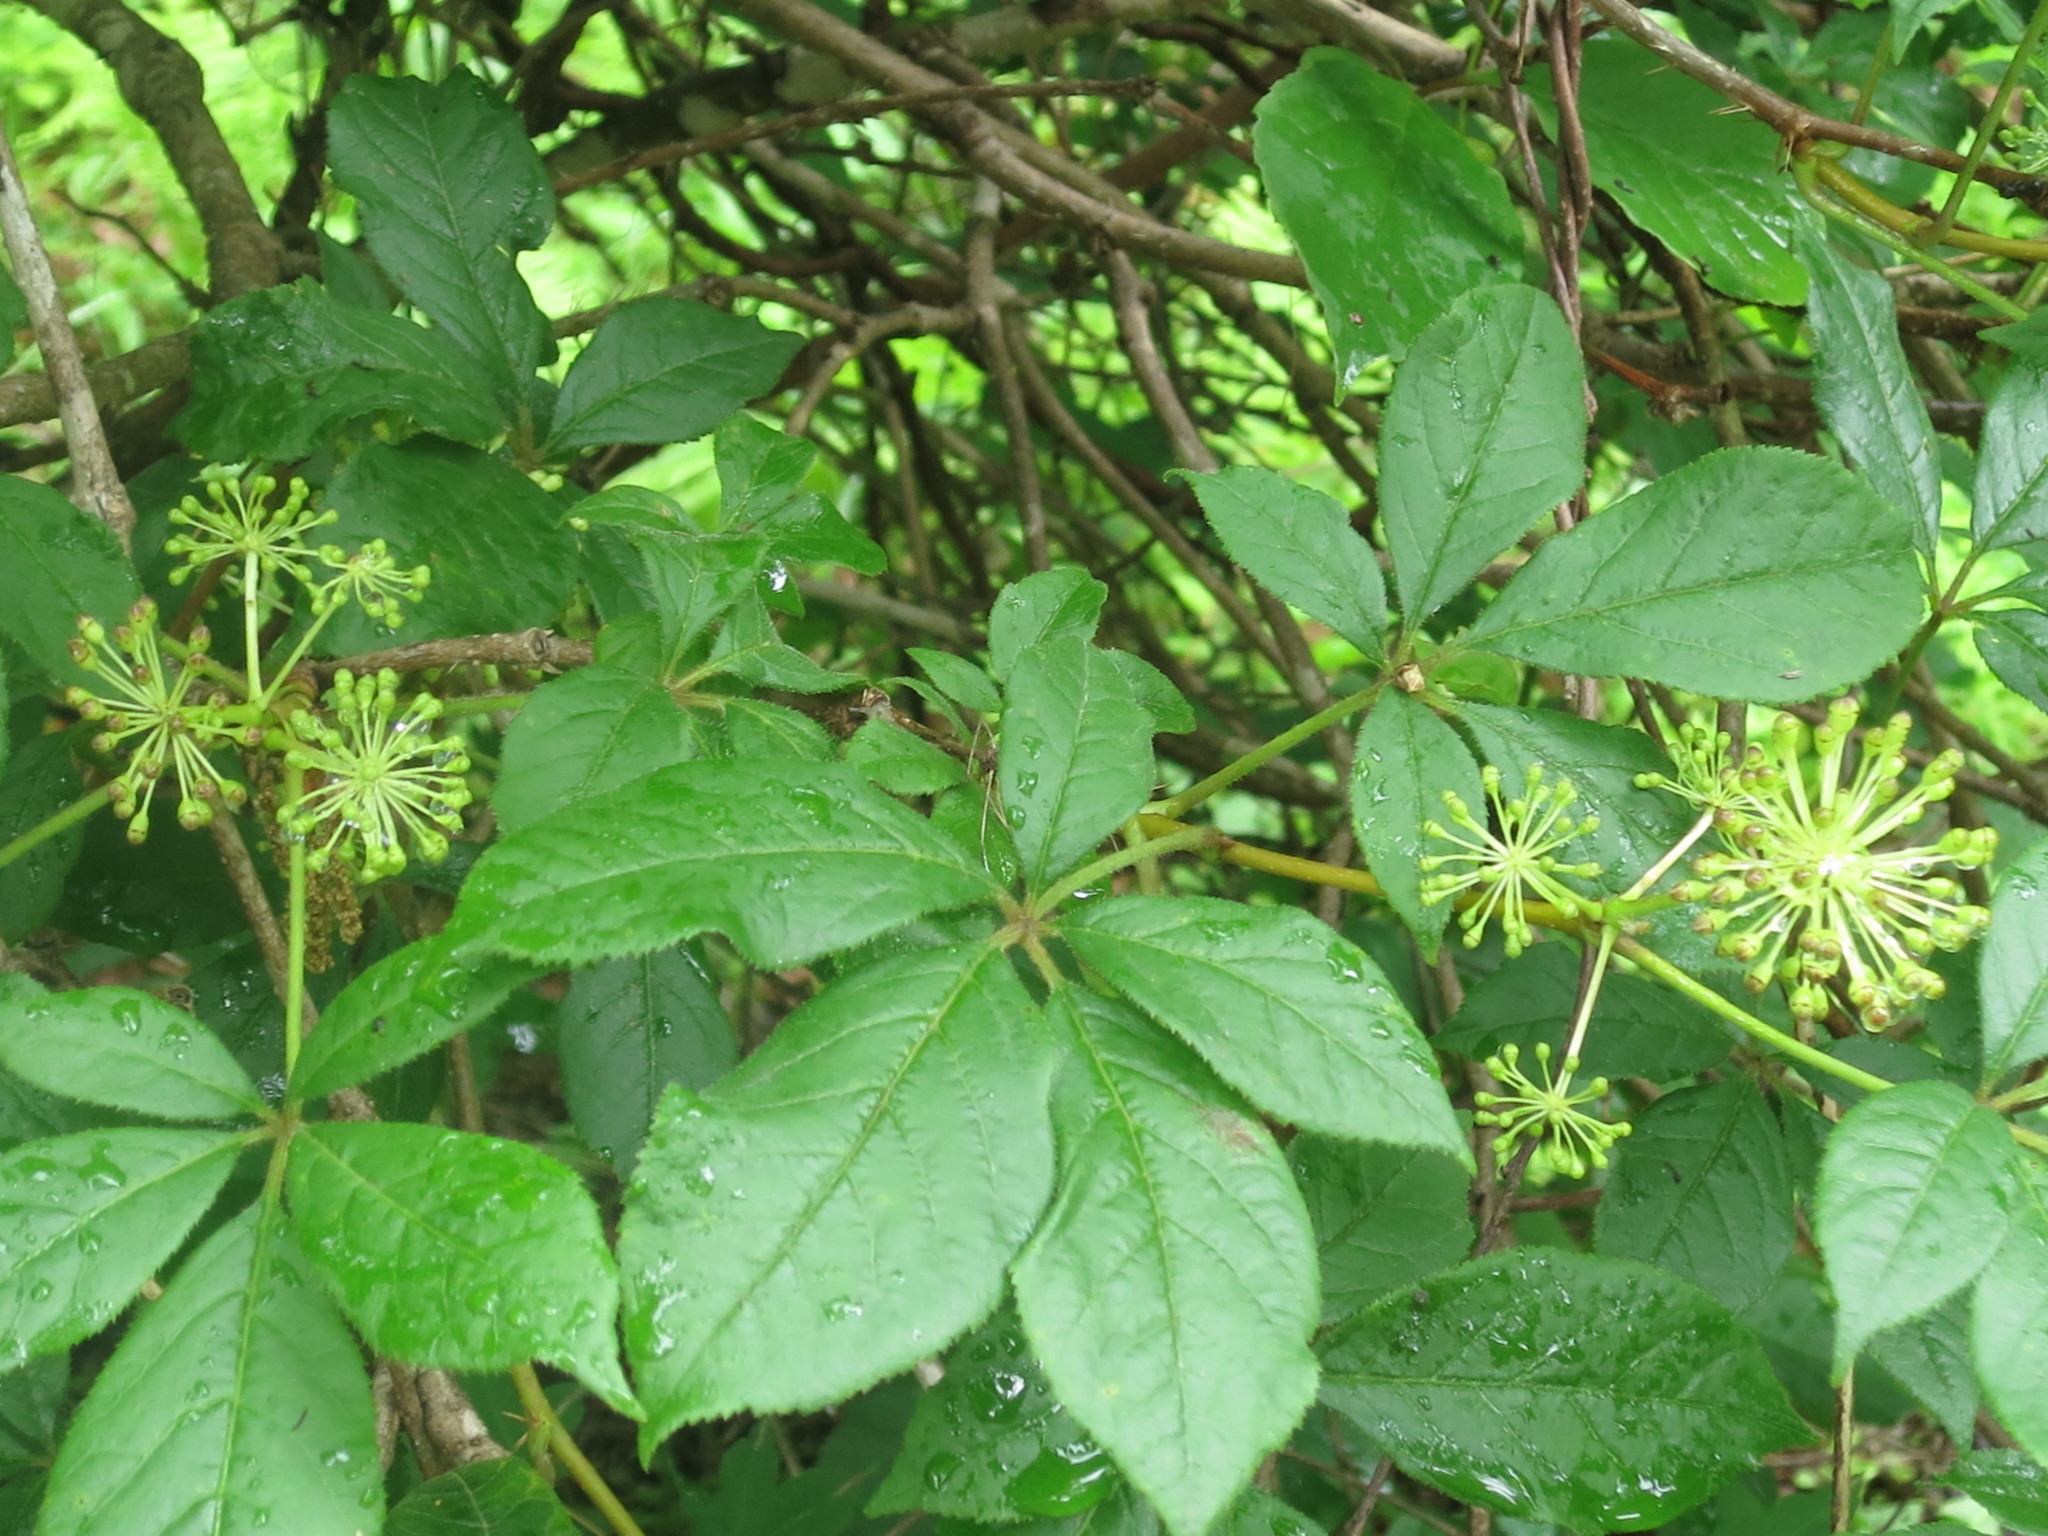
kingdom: Plantae
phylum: Tracheophyta
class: Magnoliopsida
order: Apiales
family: Araliaceae
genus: Eleutherococcus
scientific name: Eleutherococcus senticosus
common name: Siberian-ginseng
